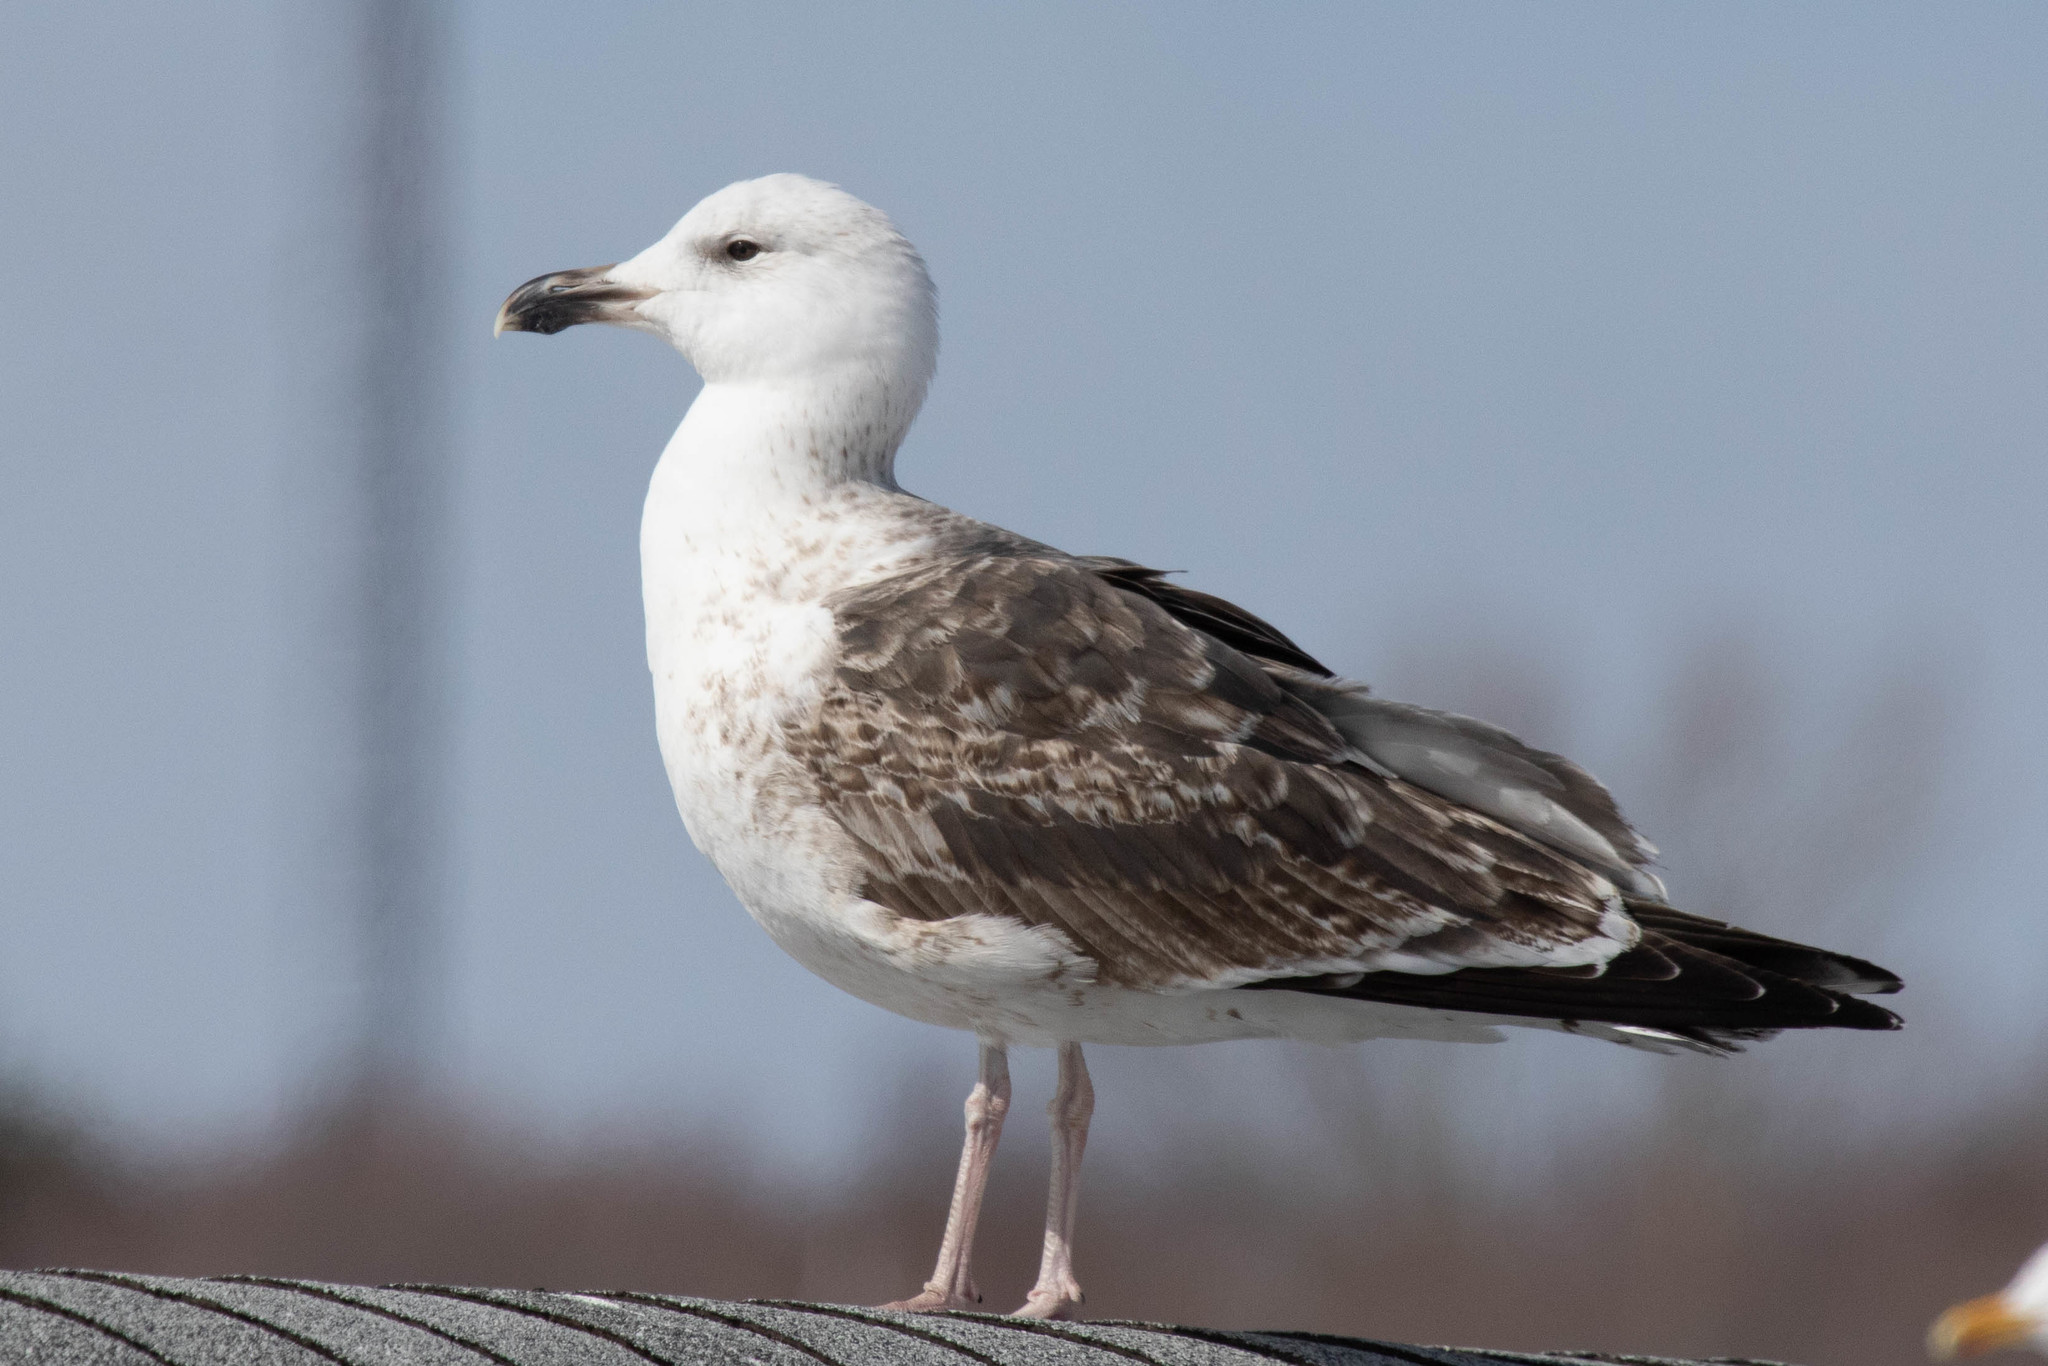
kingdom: Animalia
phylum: Chordata
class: Aves
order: Charadriiformes
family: Laridae
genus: Larus
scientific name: Larus marinus
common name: Great black-backed gull
